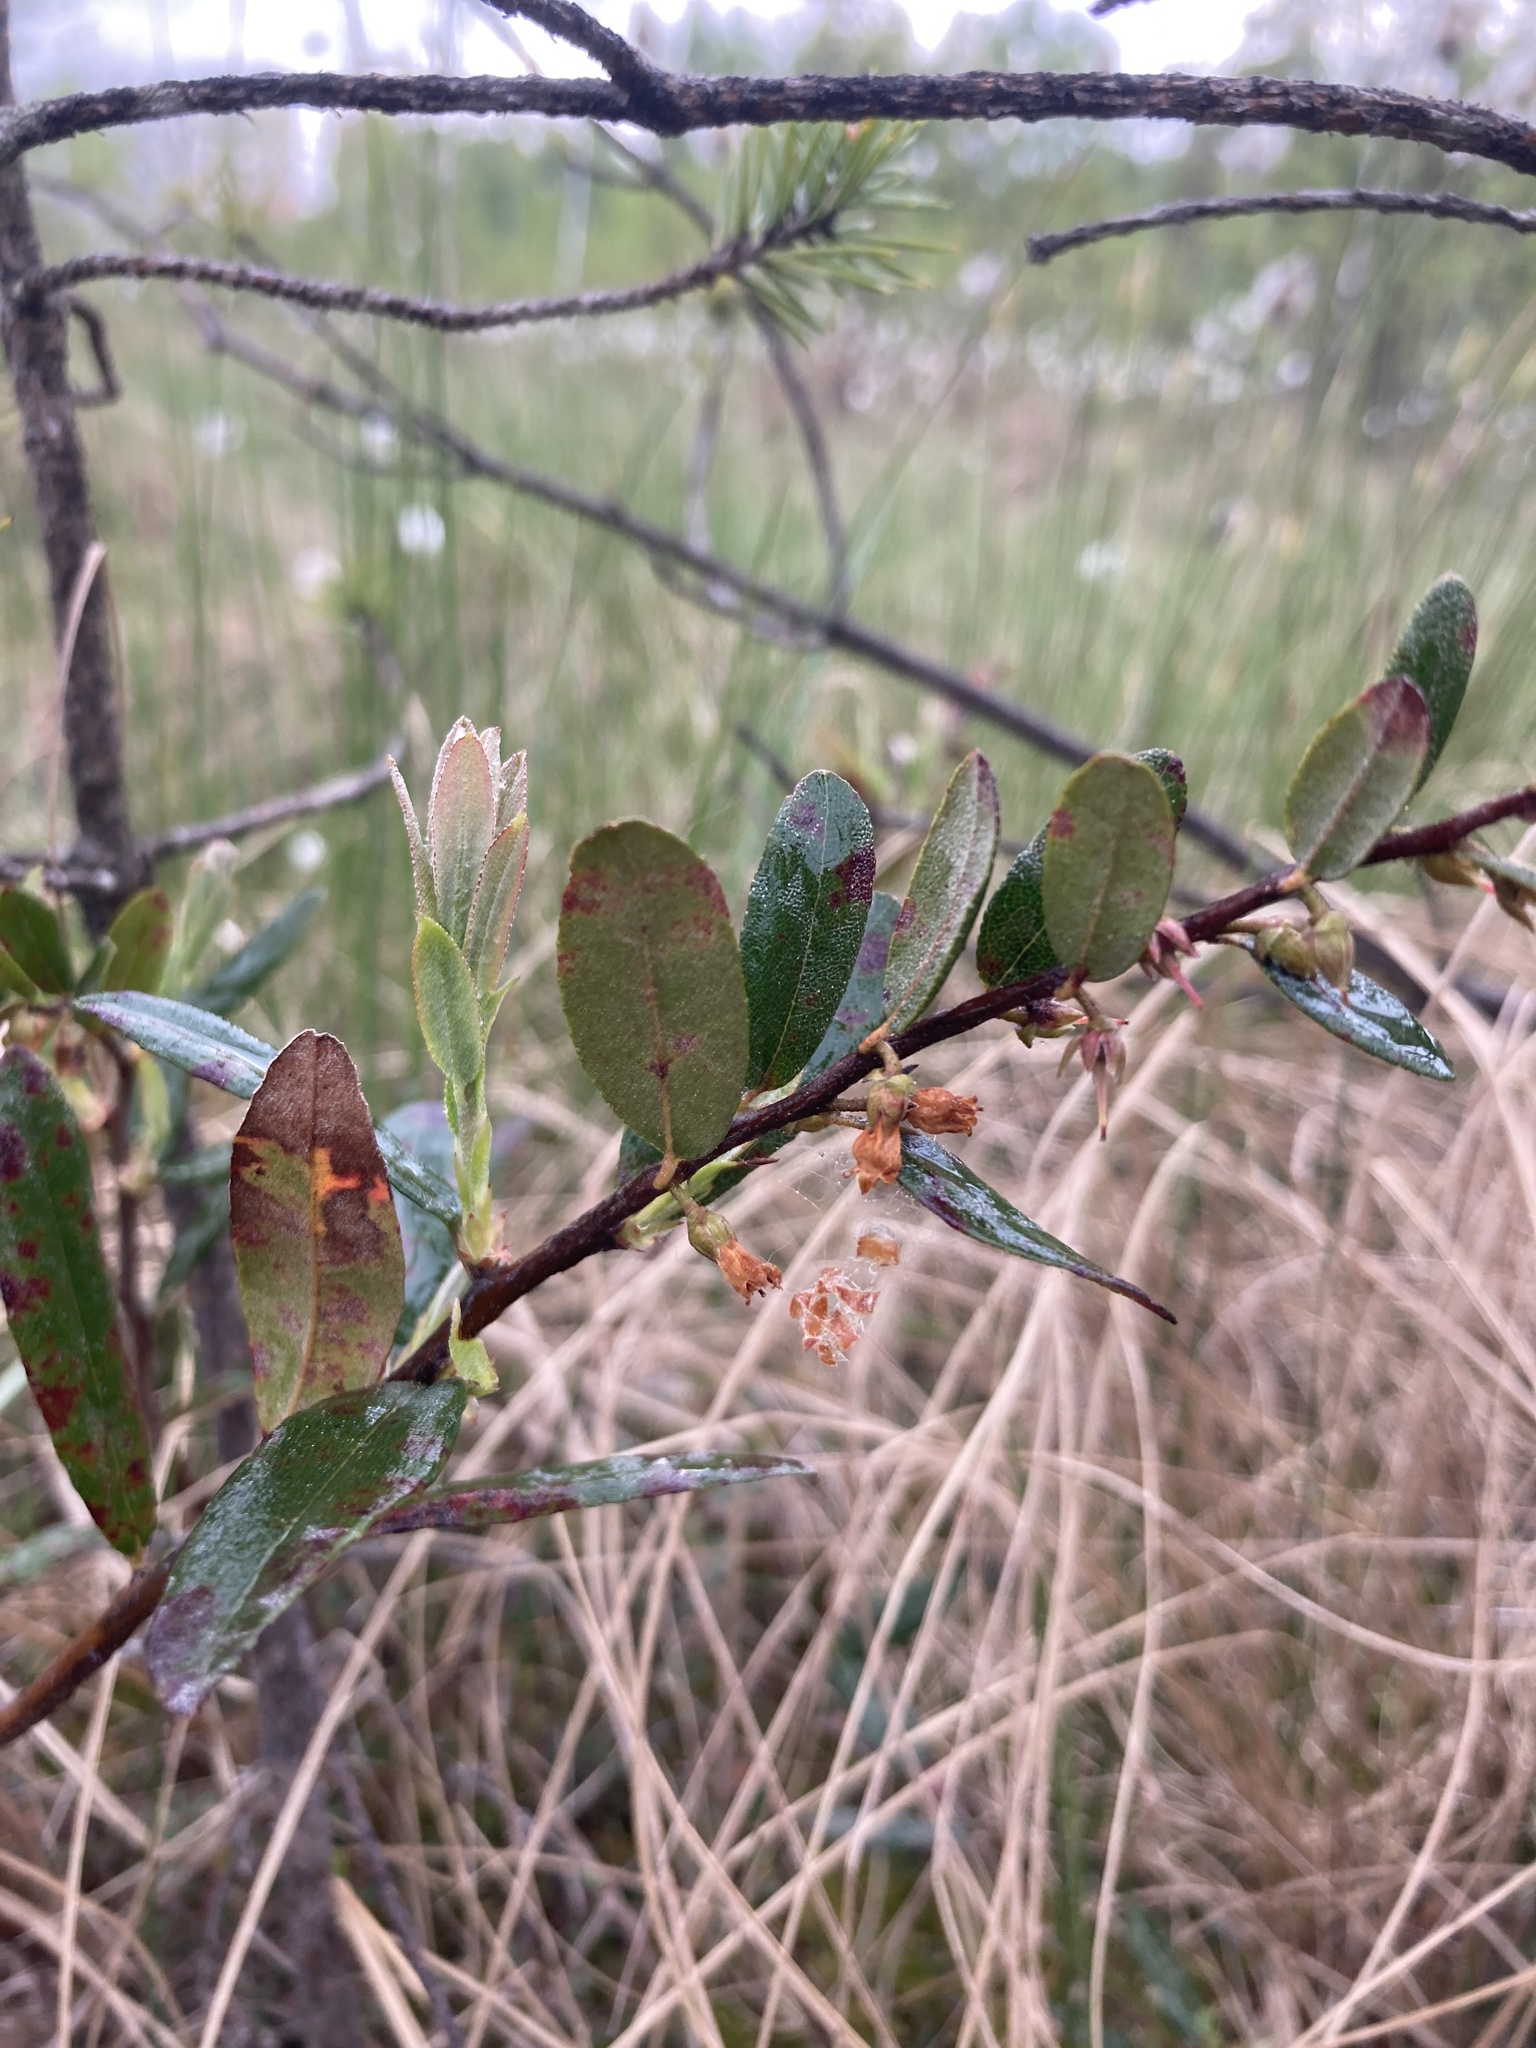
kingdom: Plantae
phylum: Tracheophyta
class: Magnoliopsida
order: Ericales
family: Ericaceae
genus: Chamaedaphne
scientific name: Chamaedaphne calyculata
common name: Leatherleaf
